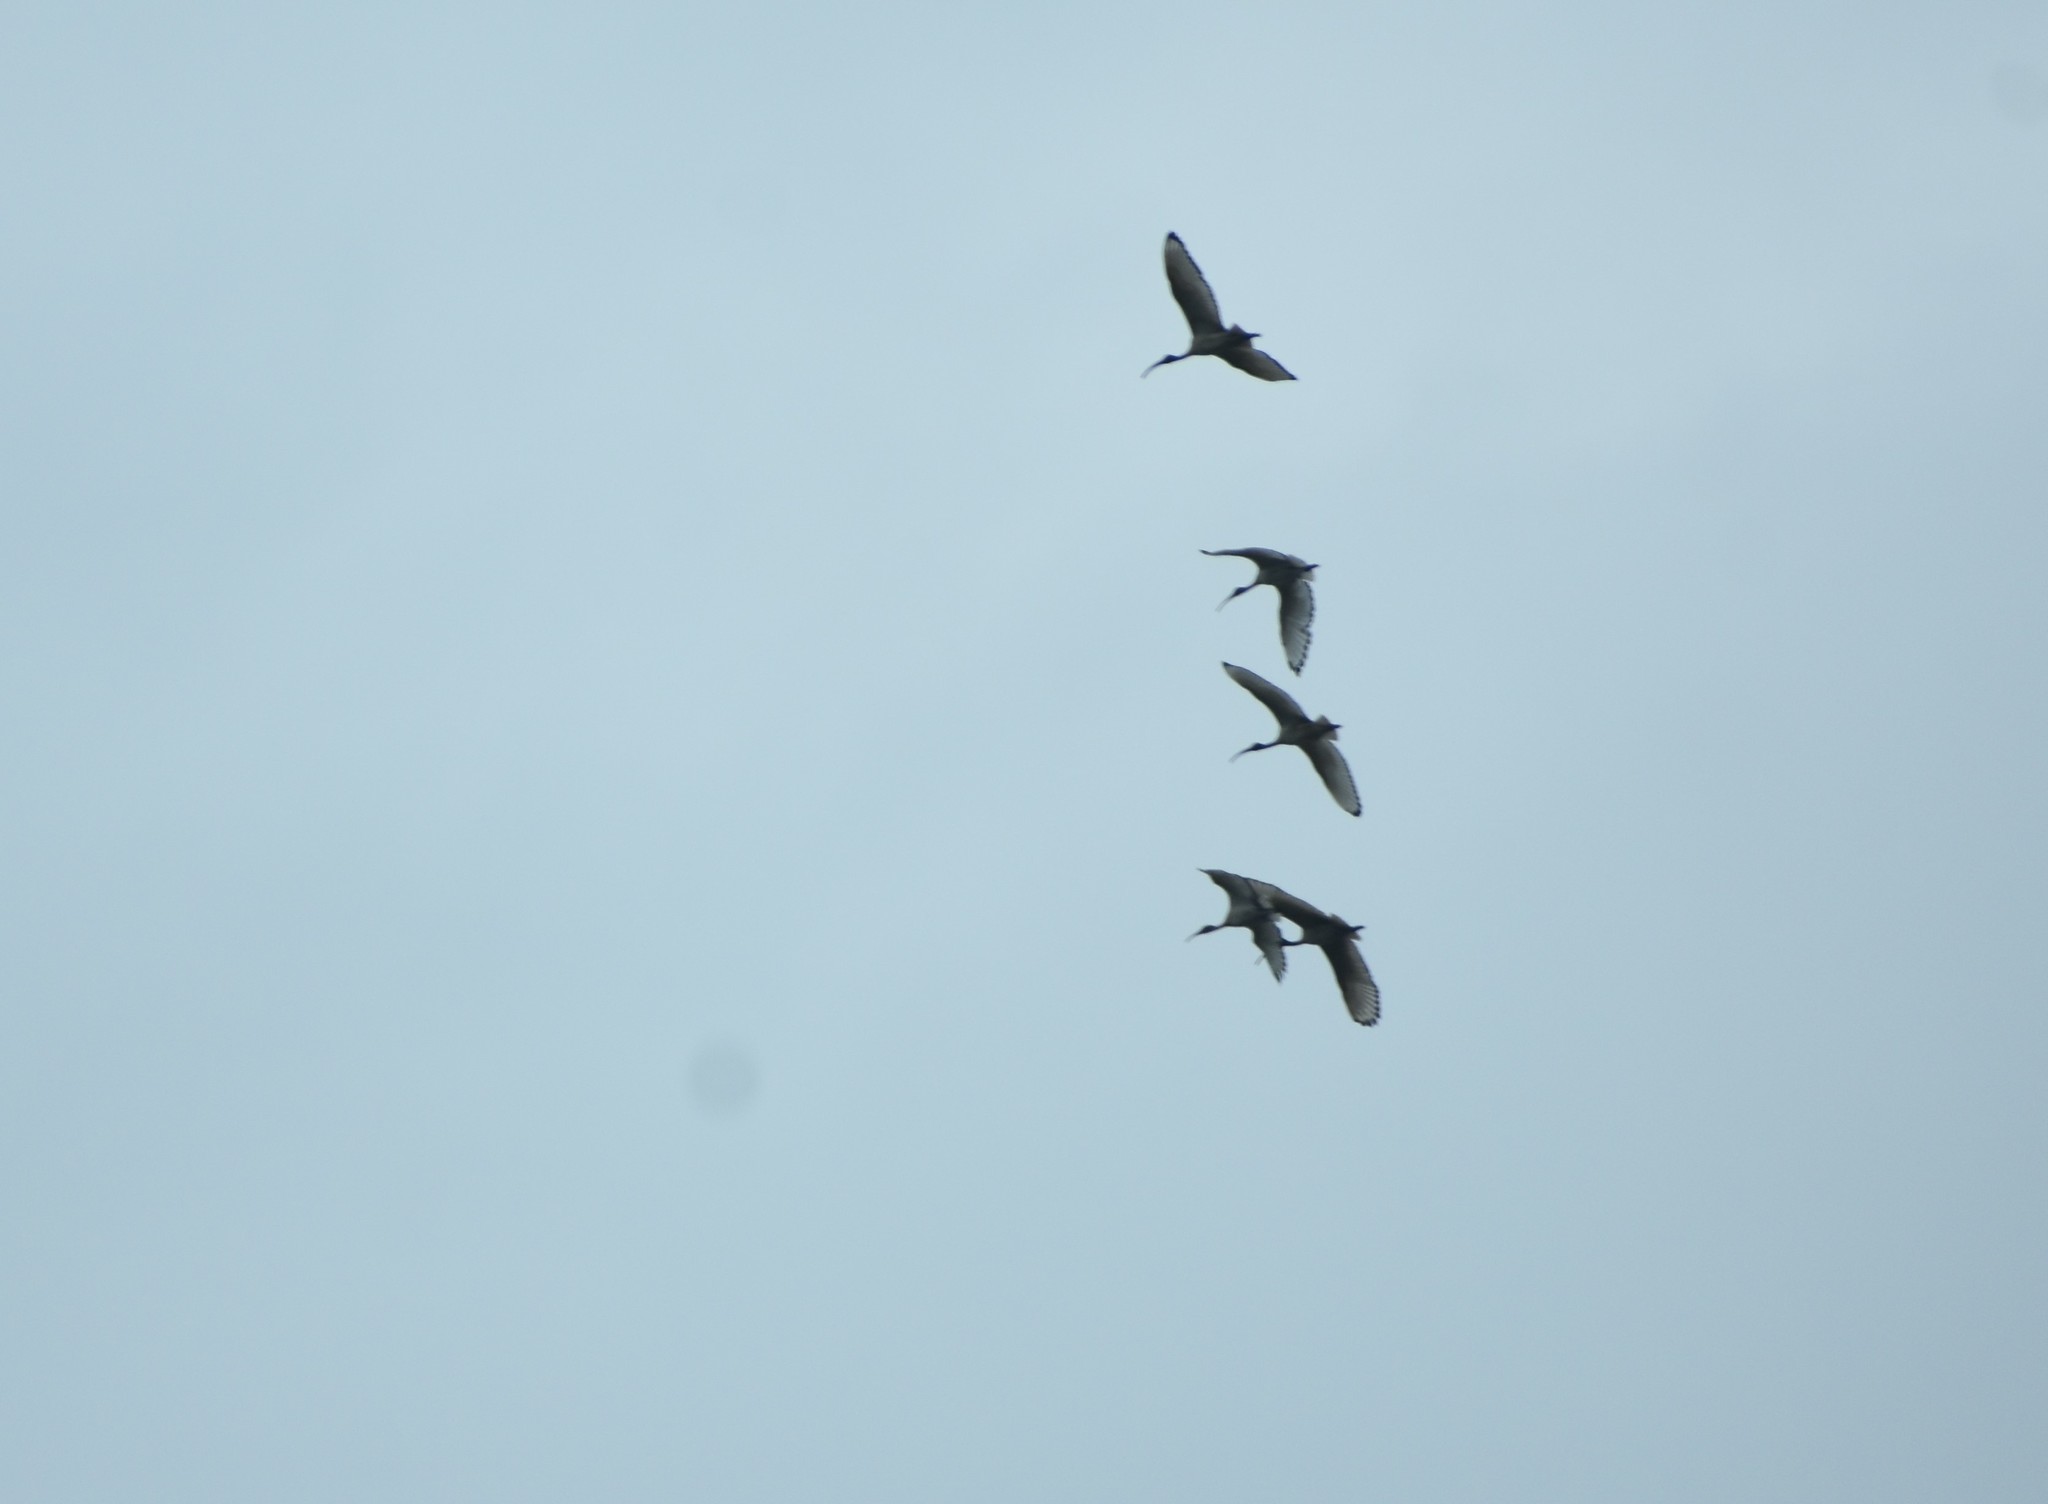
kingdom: Animalia
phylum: Chordata
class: Aves
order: Pelecaniformes
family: Threskiornithidae
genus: Threskiornis
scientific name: Threskiornis aethiopicus
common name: Sacred ibis
